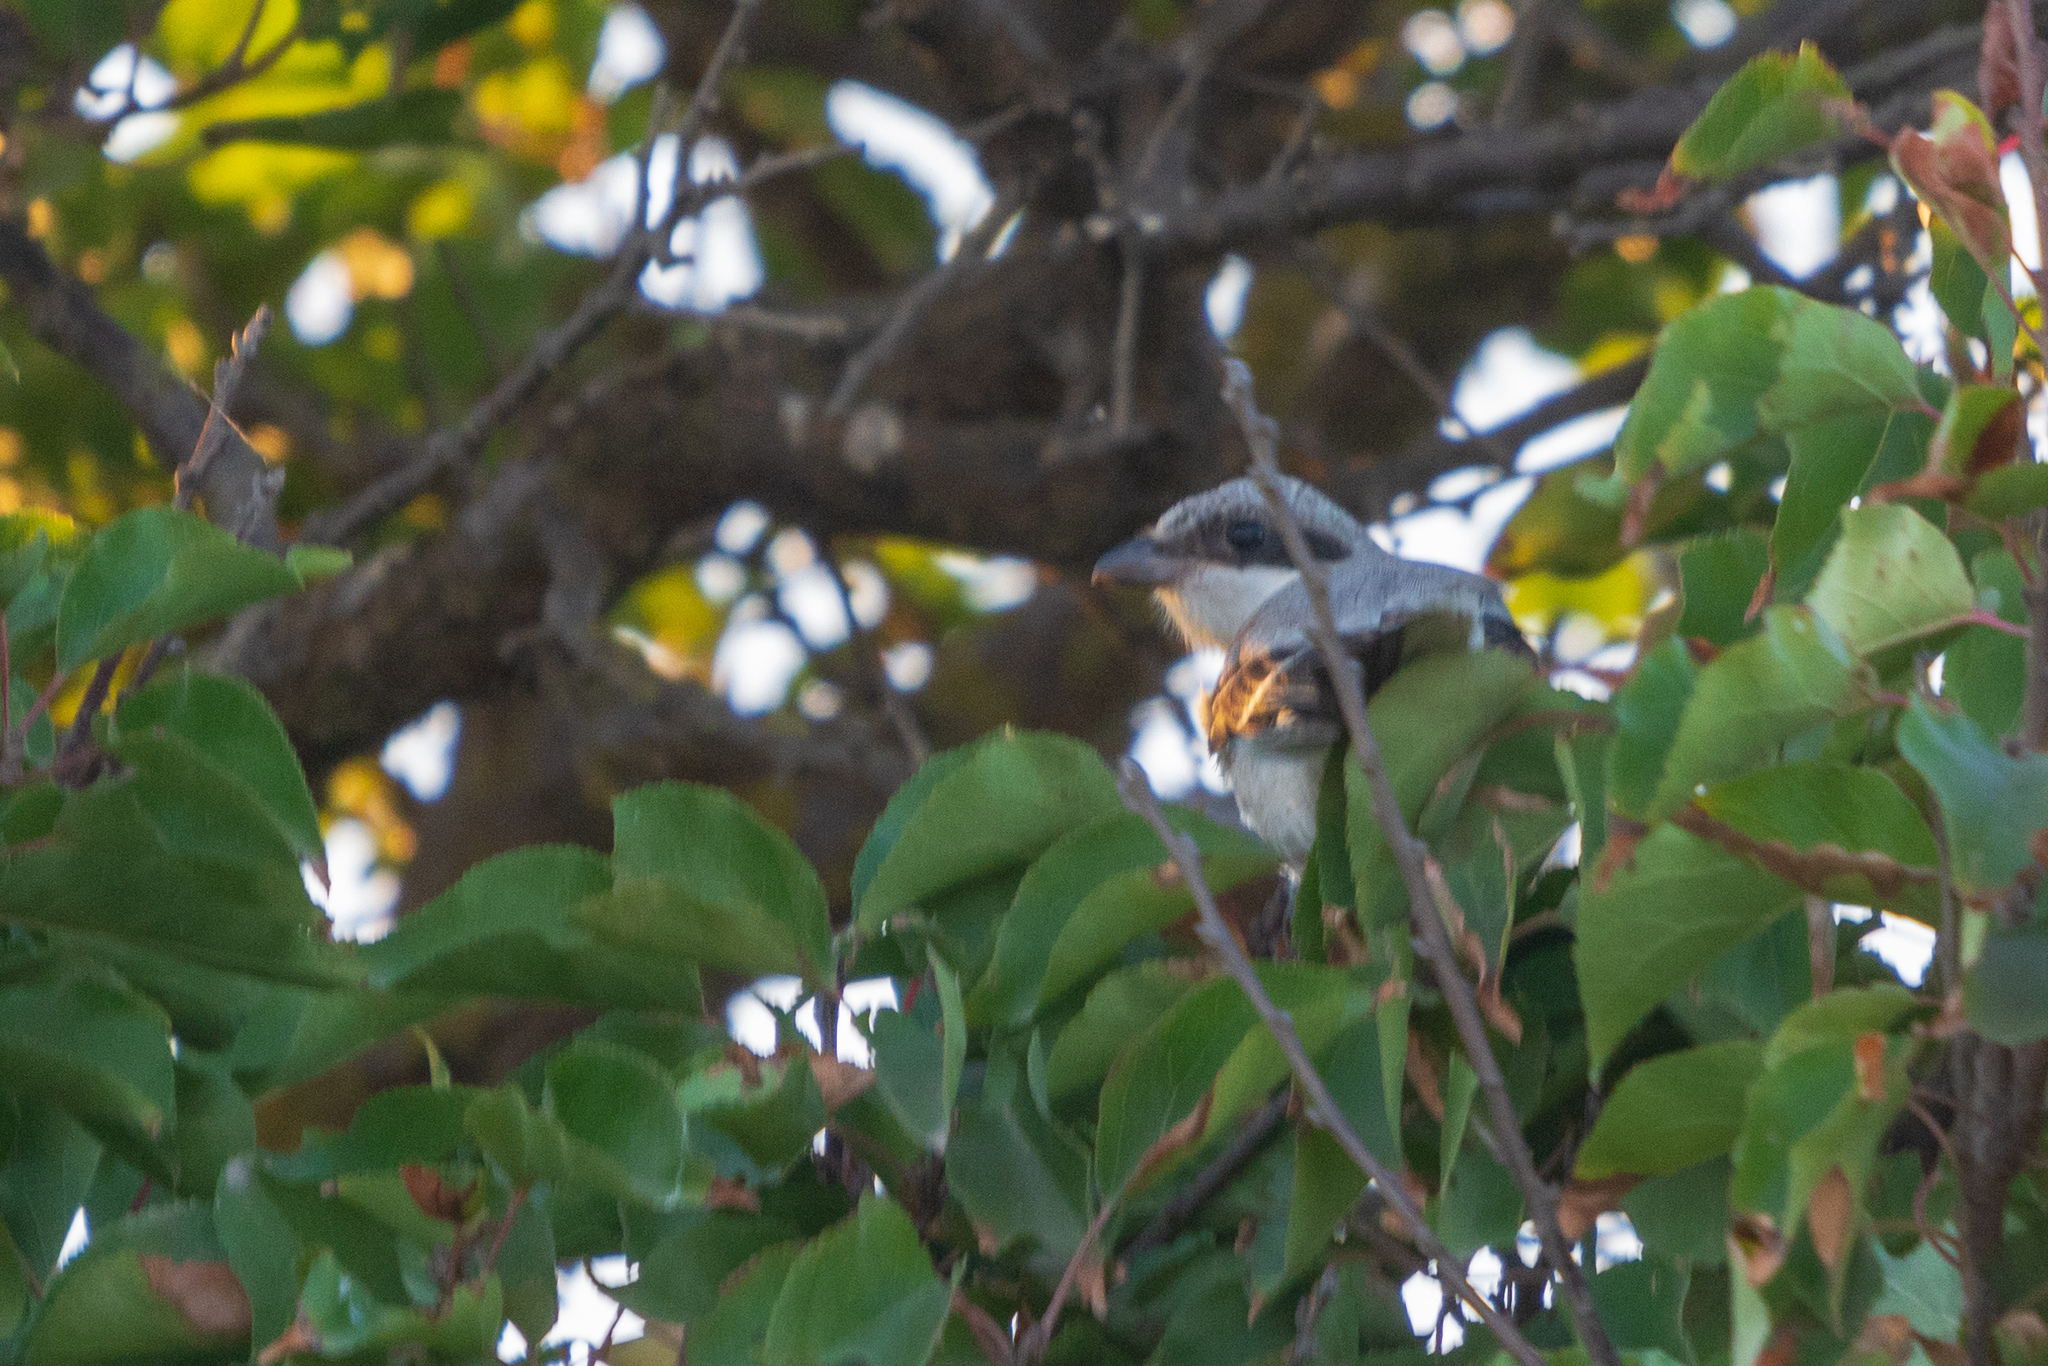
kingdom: Animalia
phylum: Chordata
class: Aves
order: Passeriformes
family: Laniidae
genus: Lanius
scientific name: Lanius minor
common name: Lesser grey shrike
